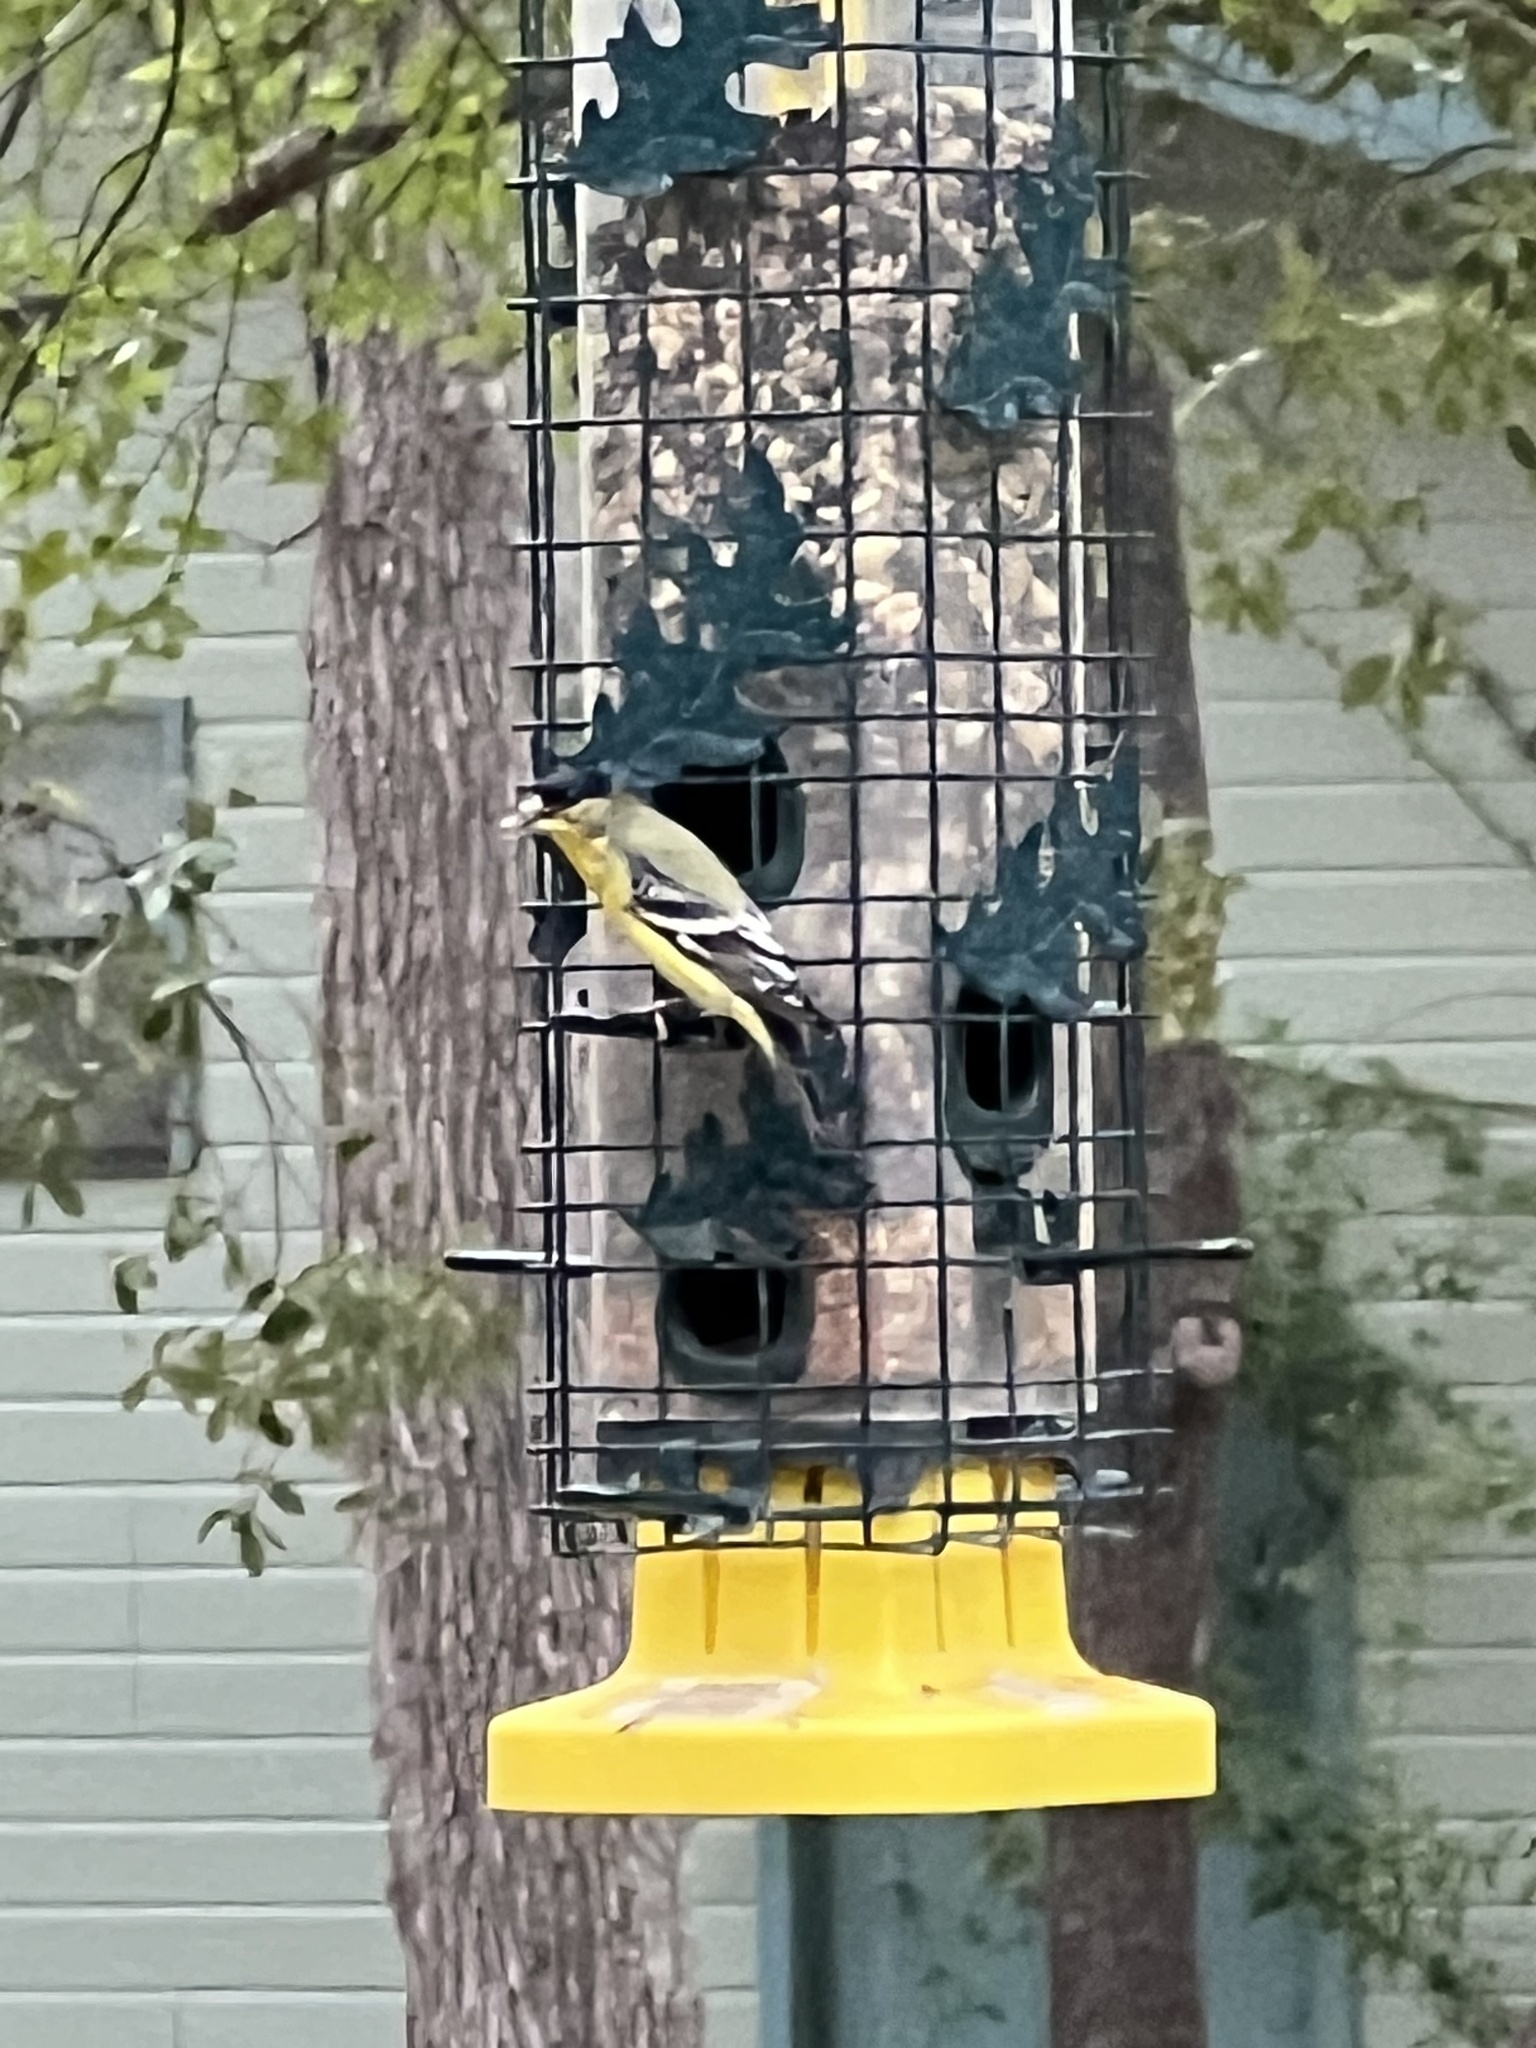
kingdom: Animalia
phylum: Chordata
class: Aves
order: Passeriformes
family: Fringillidae
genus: Spinus
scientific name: Spinus psaltria
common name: Lesser goldfinch
